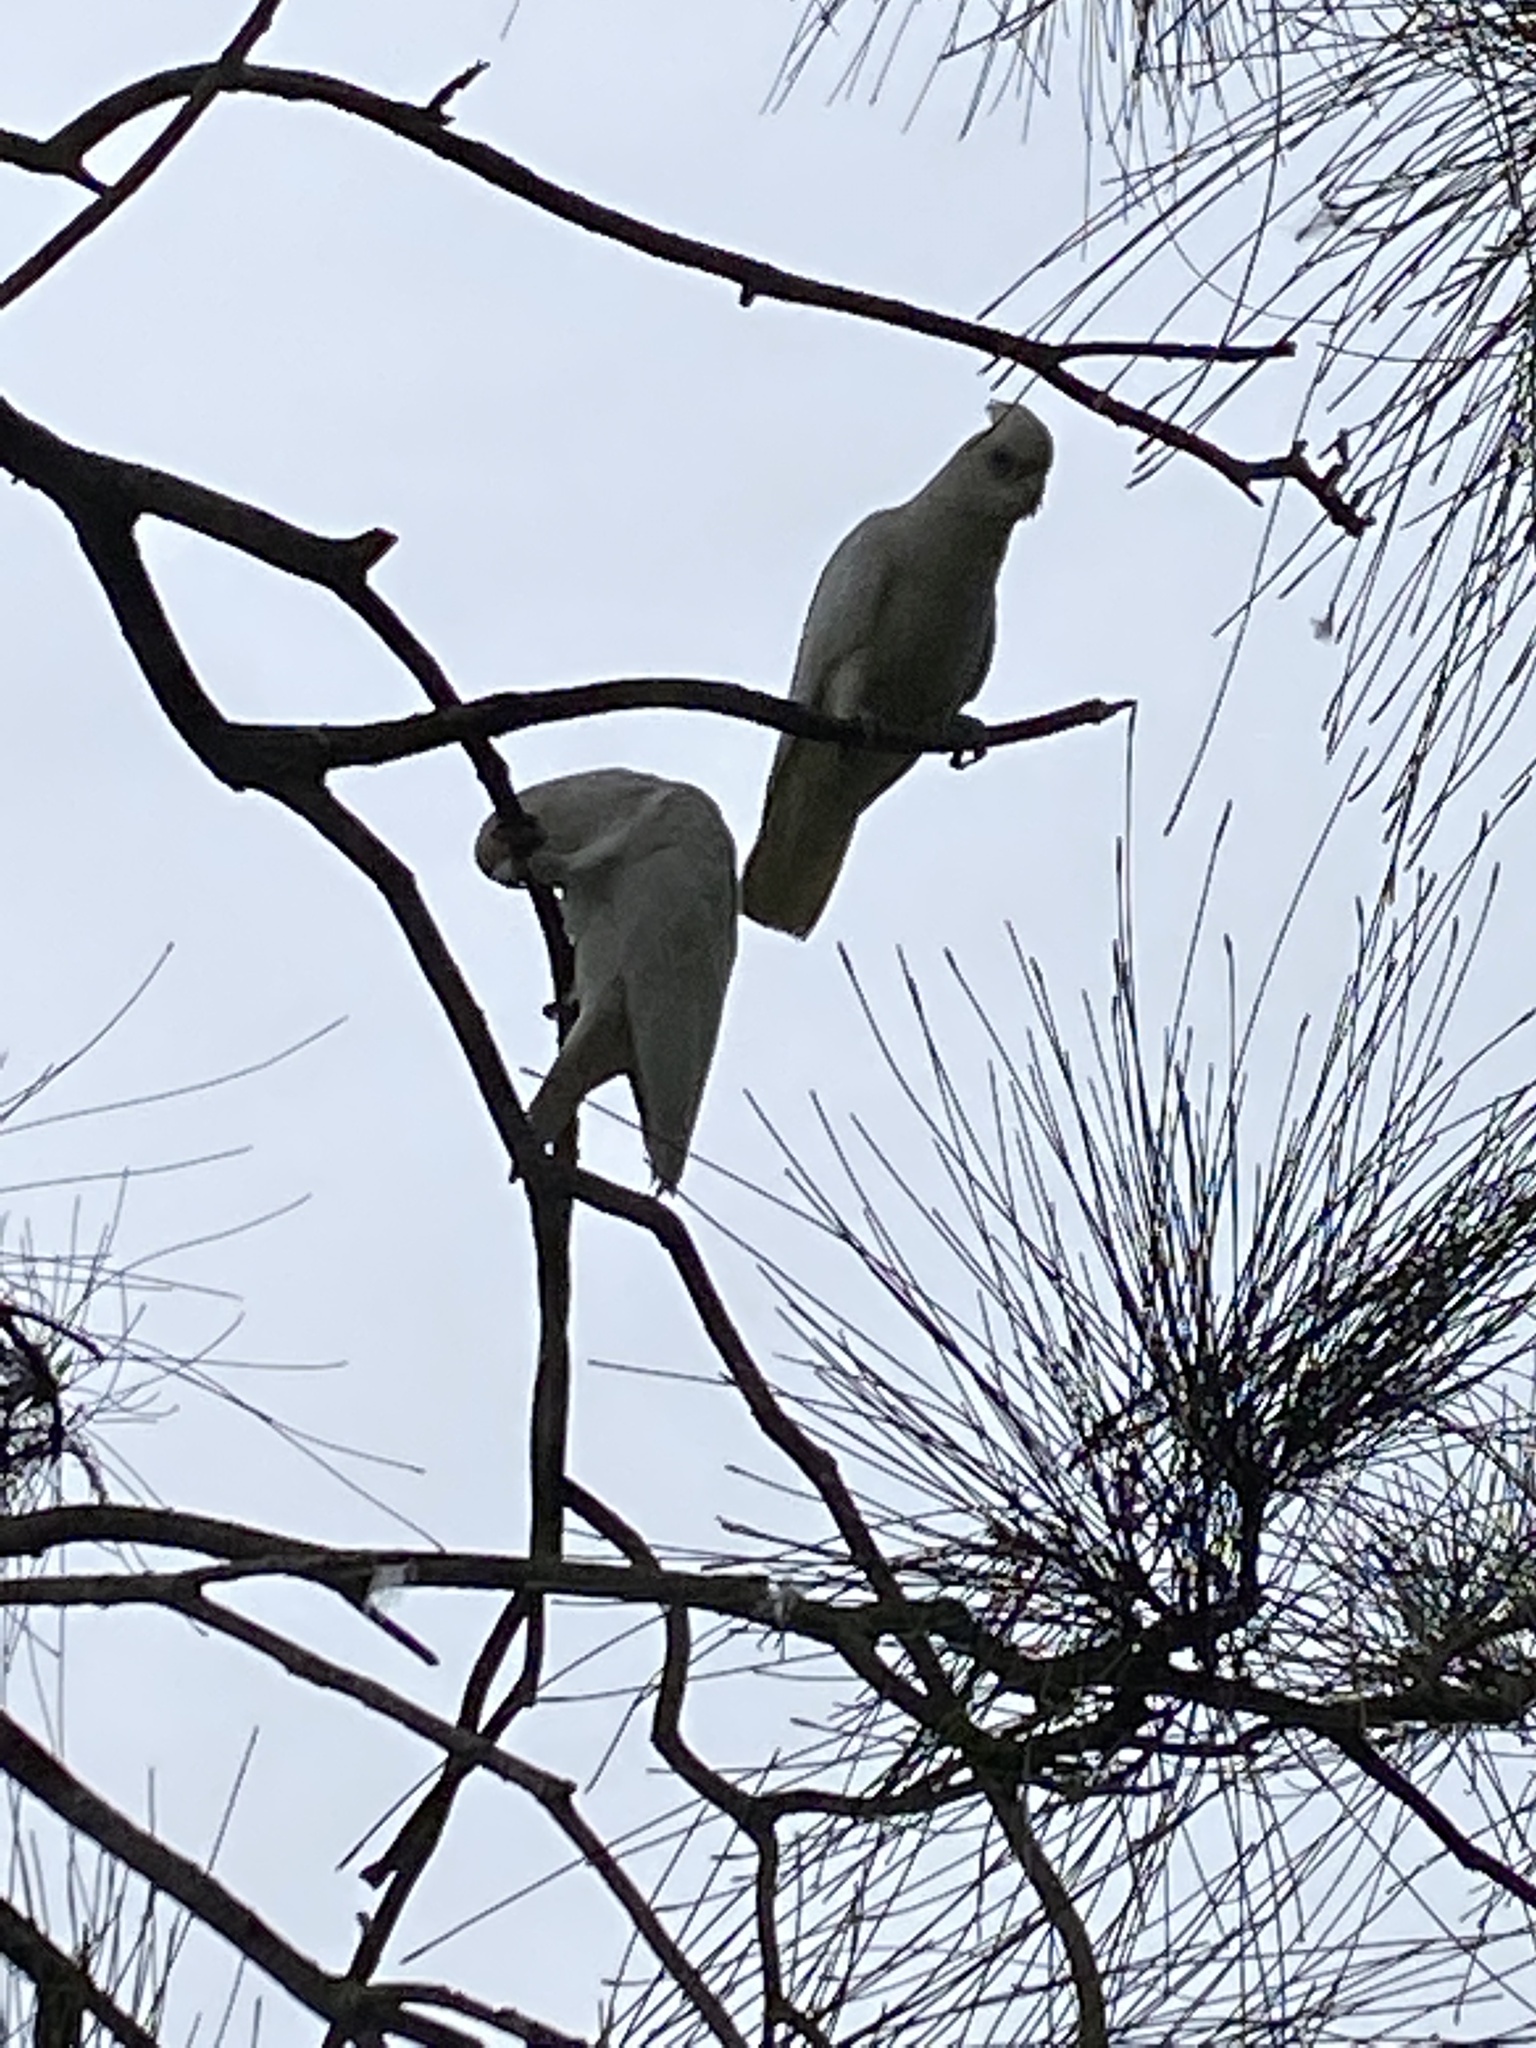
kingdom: Animalia
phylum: Chordata
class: Aves
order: Psittaciformes
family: Psittacidae
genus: Cacatua
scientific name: Cacatua sanguinea
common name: Little corella
